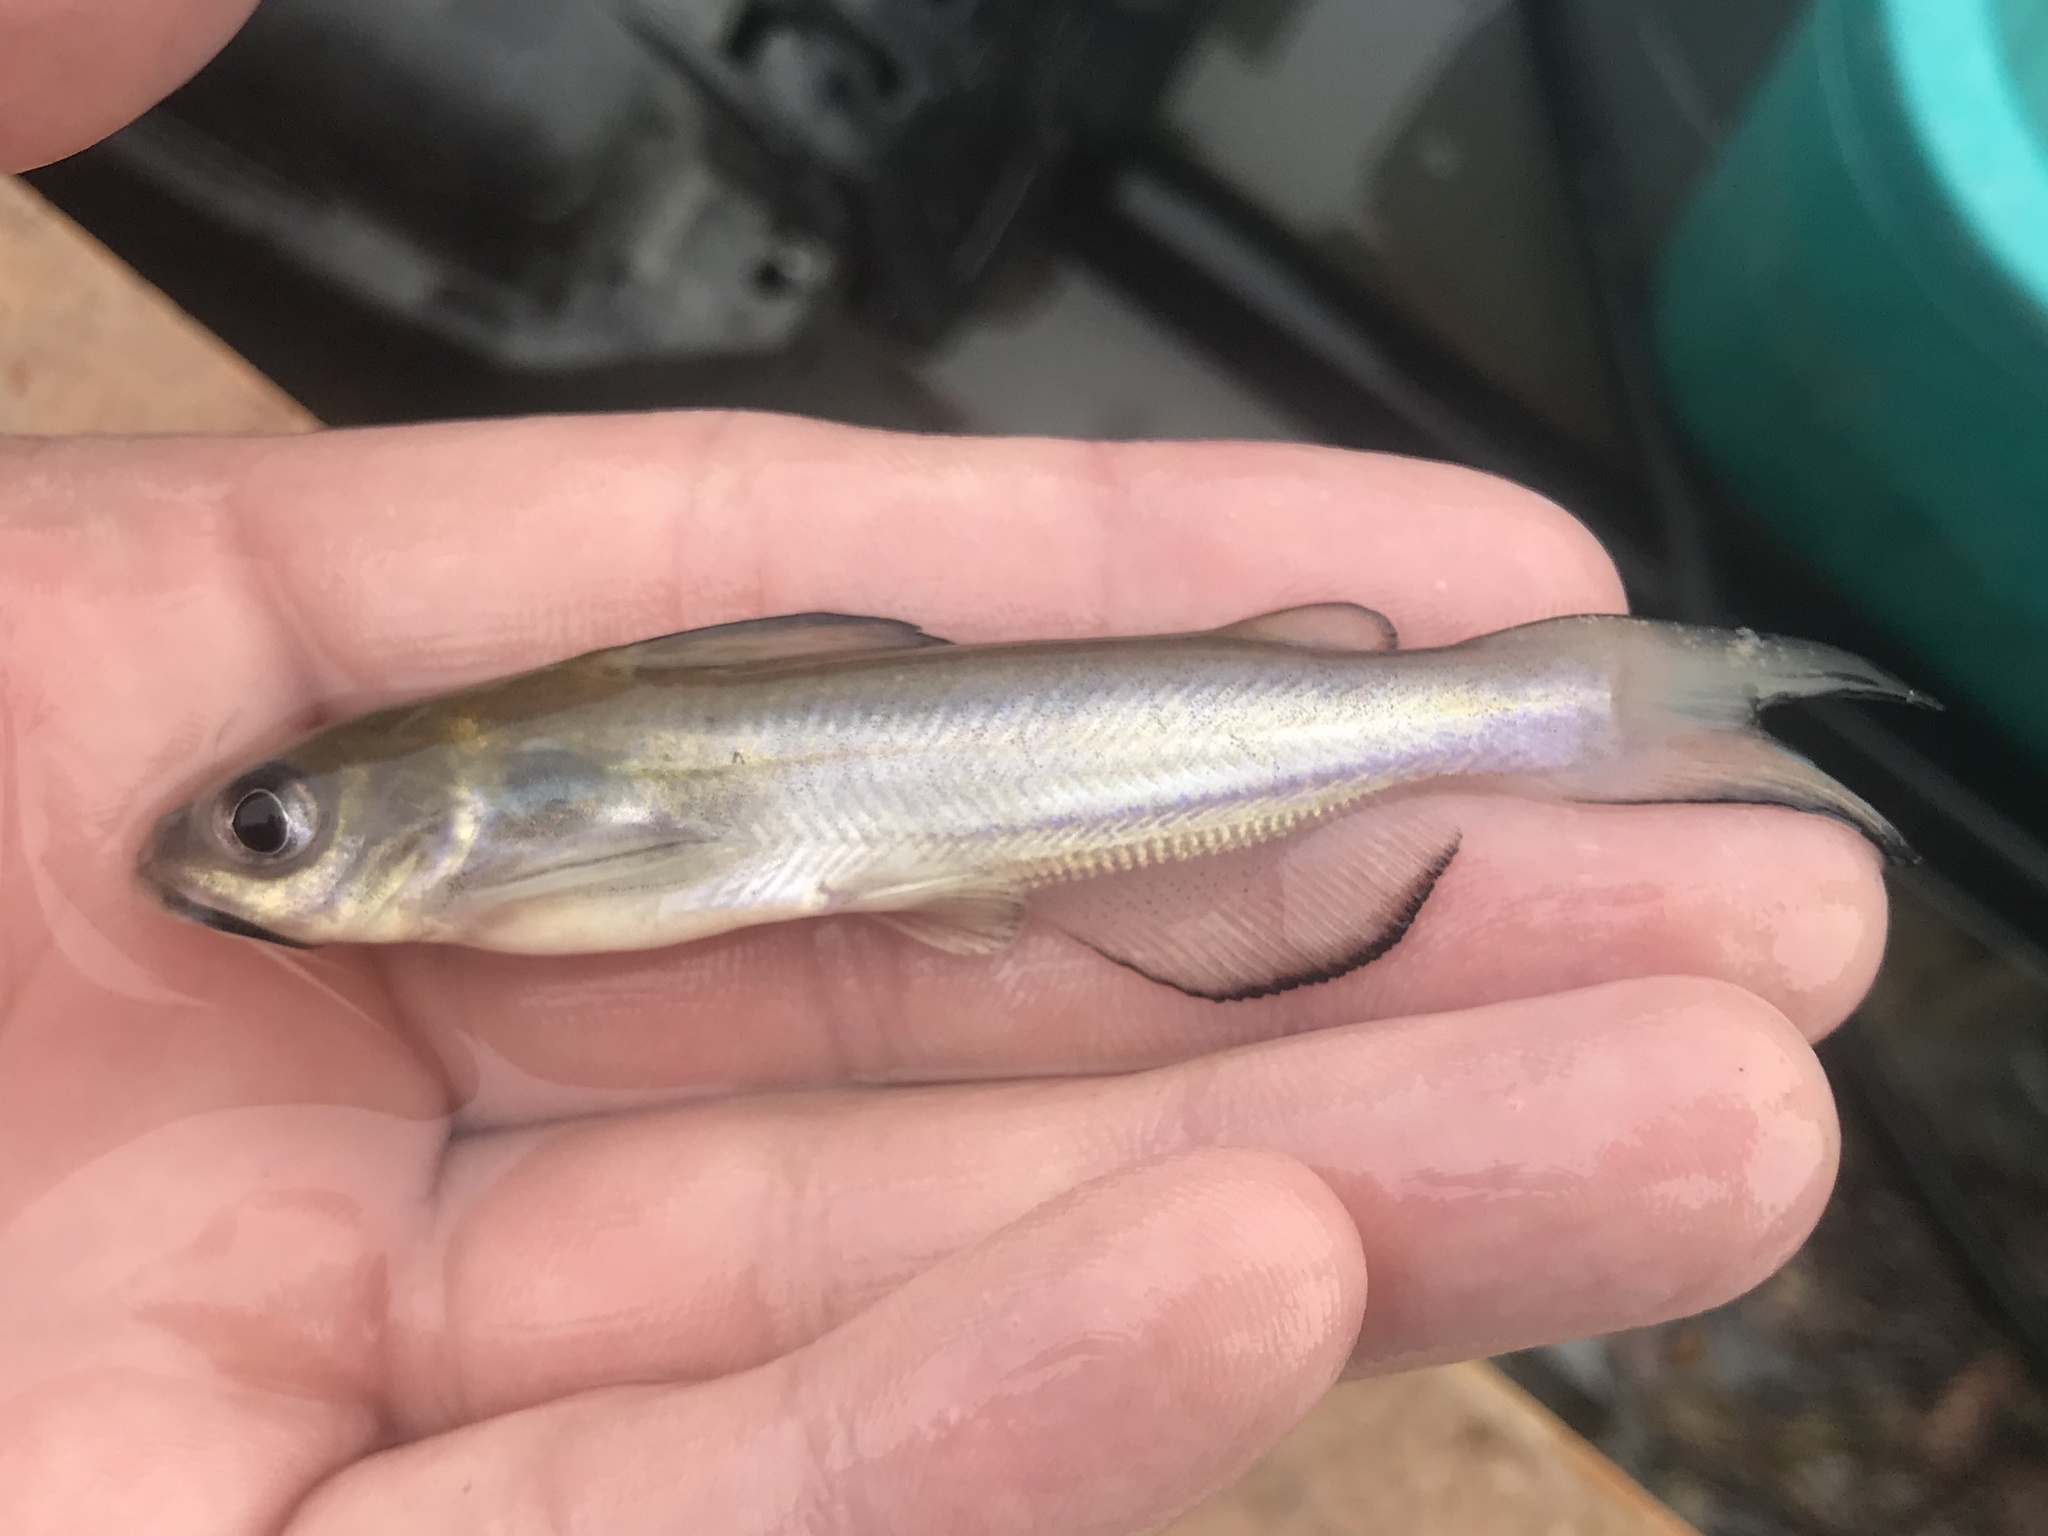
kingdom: Animalia
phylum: Chordata
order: Siluriformes
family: Ictaluridae
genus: Ictalurus
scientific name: Ictalurus punctatus
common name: Channel catfish
